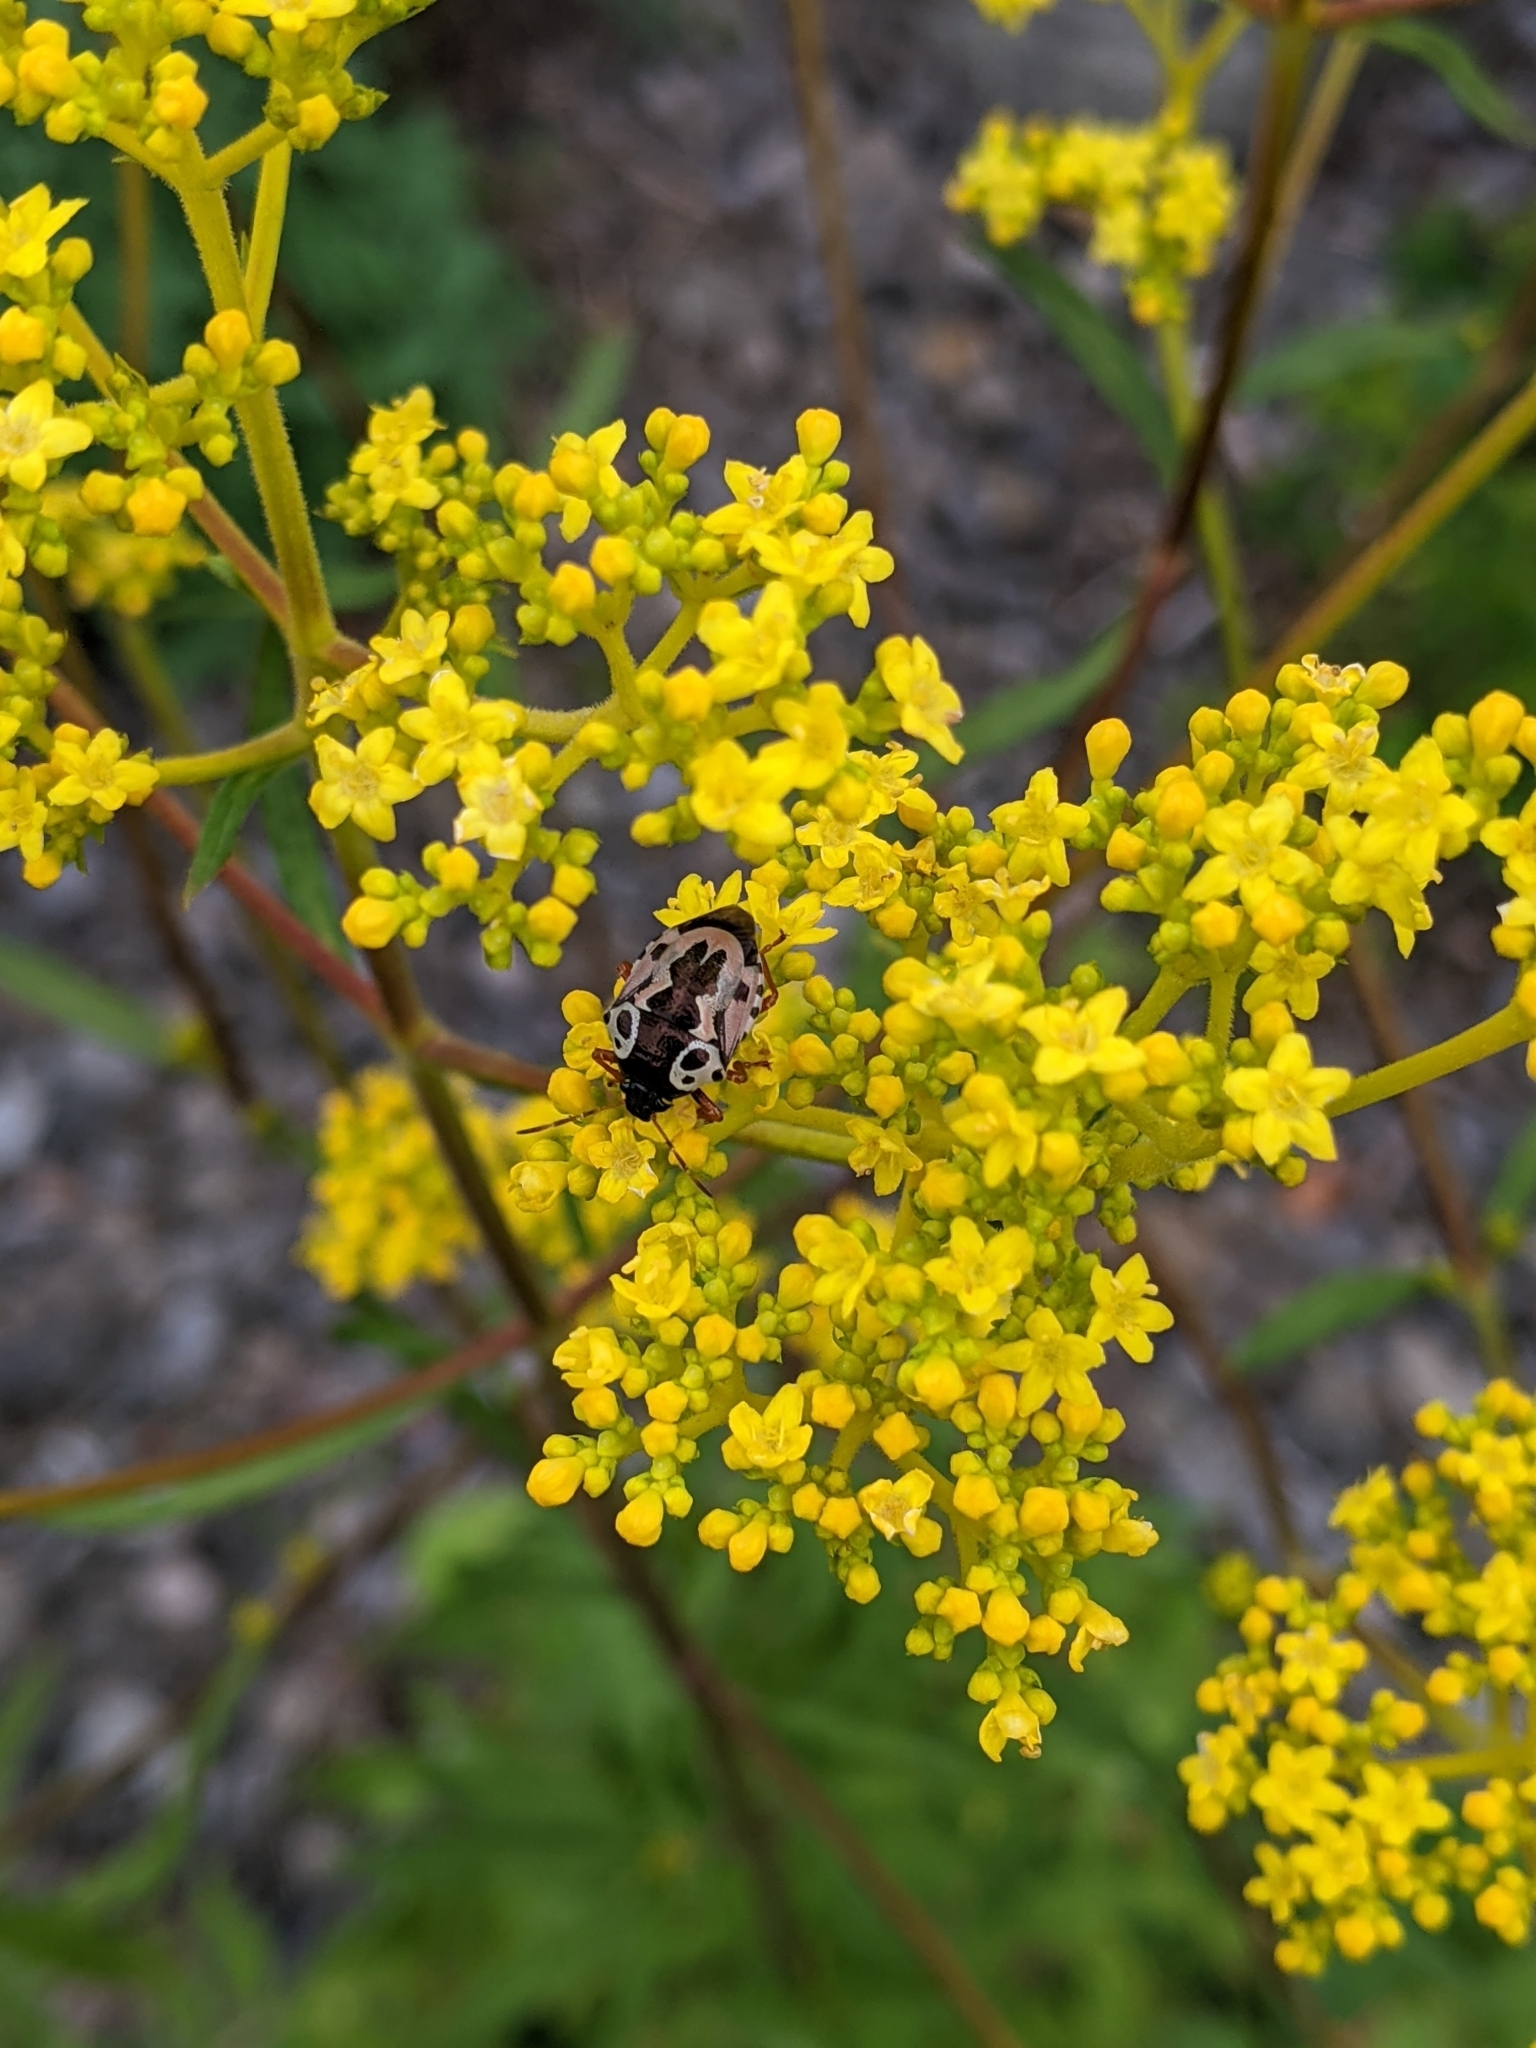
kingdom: Animalia
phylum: Arthropoda
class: Insecta
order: Hemiptera
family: Pentatomidae
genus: Stiretrus
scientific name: Stiretrus anchorago
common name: Anchor stink bug
